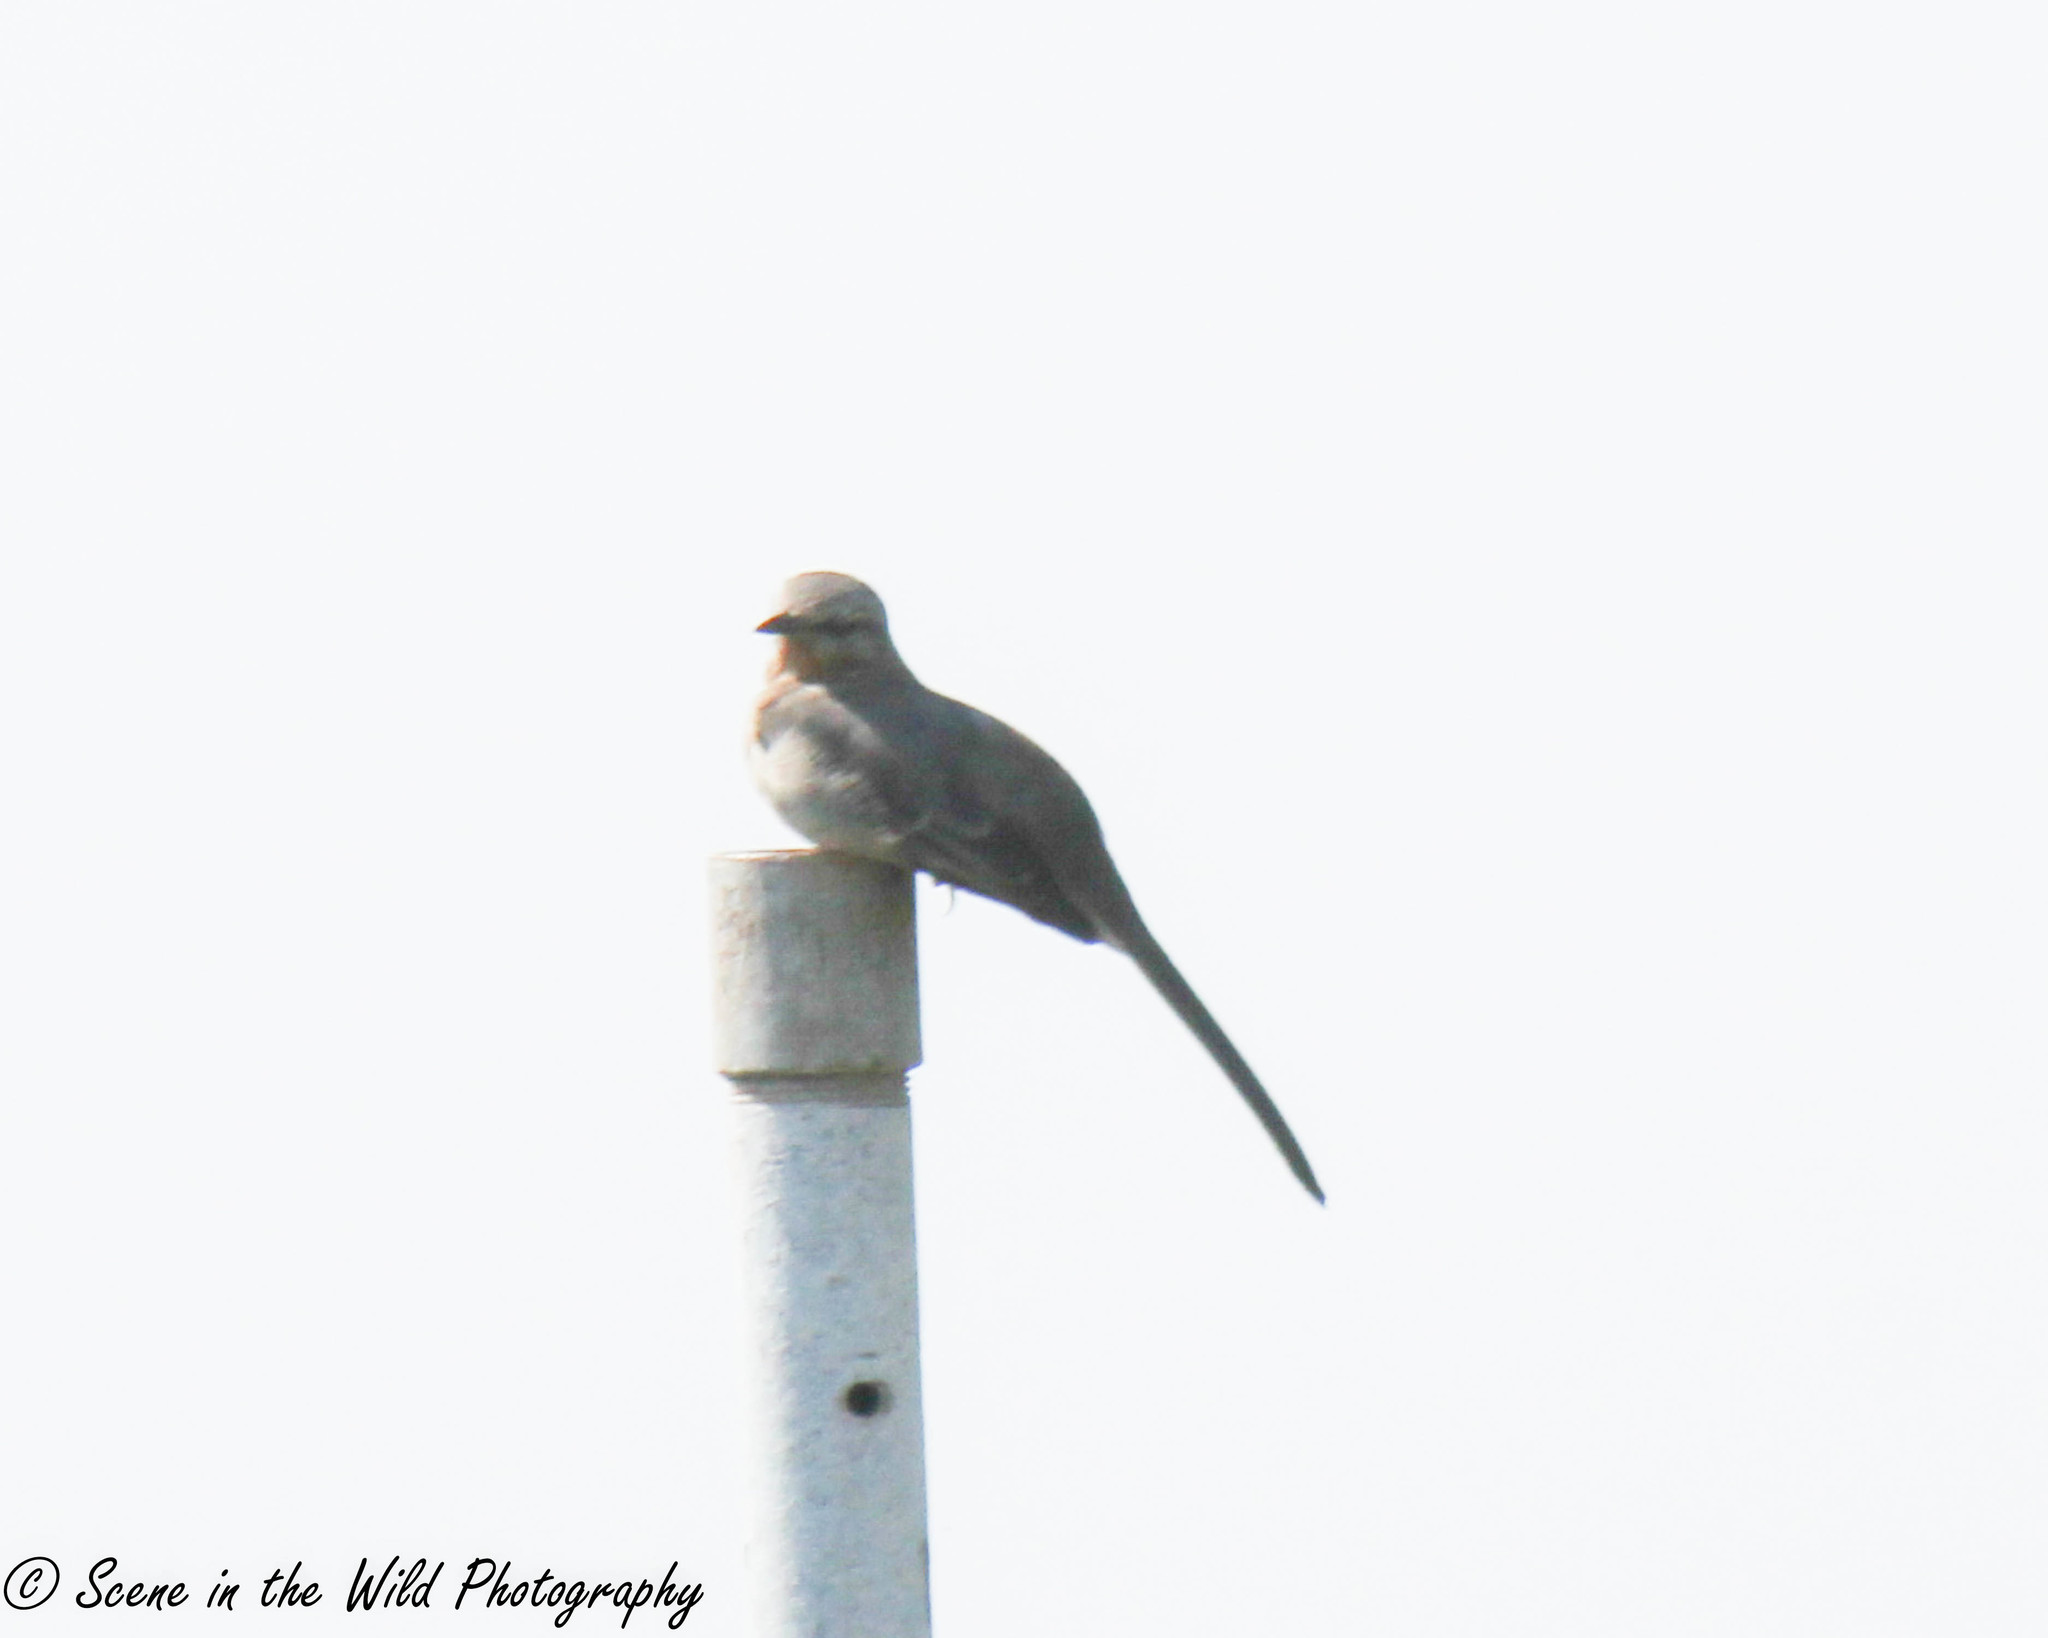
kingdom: Animalia
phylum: Chordata
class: Aves
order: Passeriformes
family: Mimidae
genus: Mimus
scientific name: Mimus polyglottos
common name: Northern mockingbird
